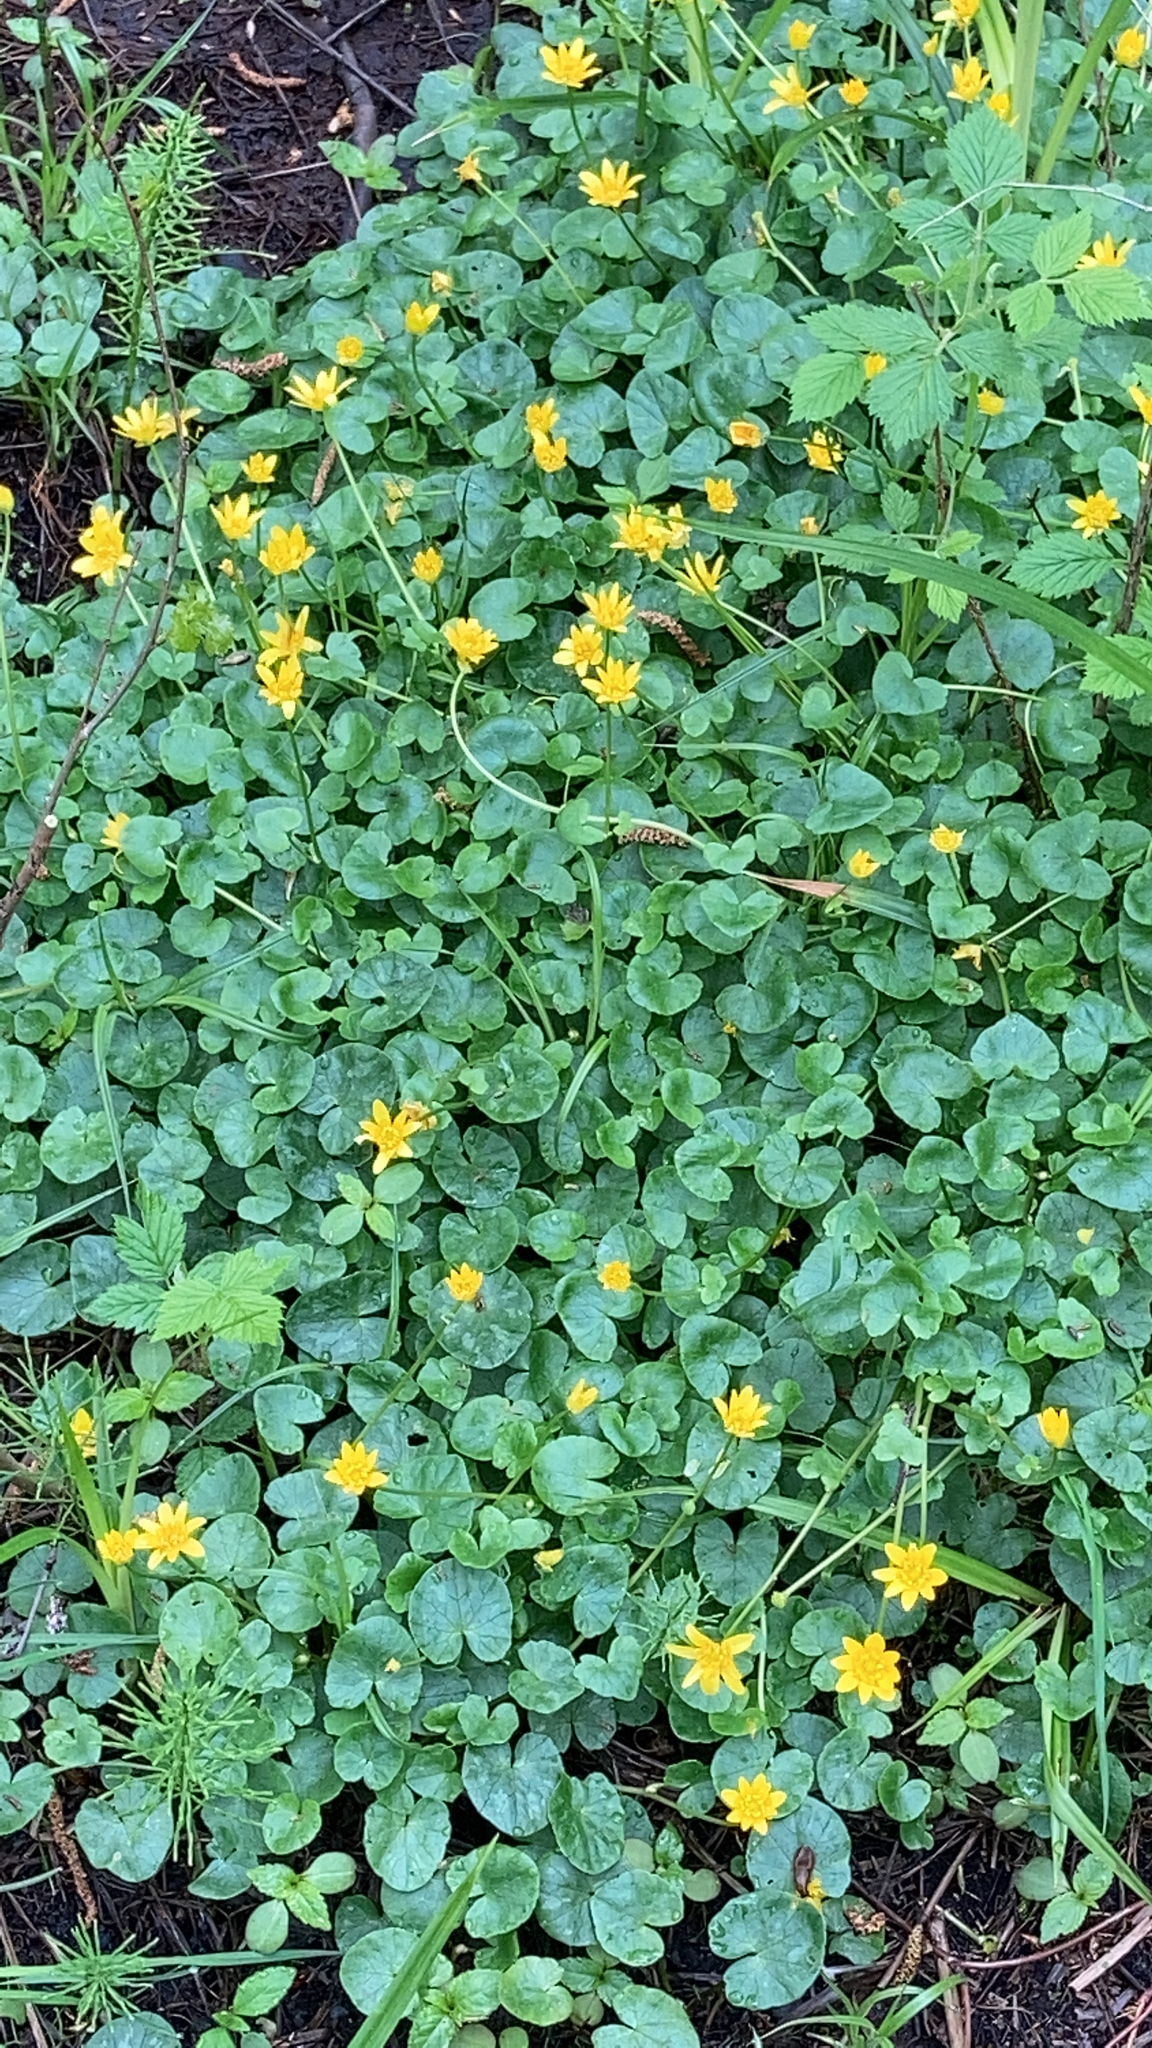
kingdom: Plantae
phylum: Tracheophyta
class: Magnoliopsida
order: Ranunculales
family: Ranunculaceae
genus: Ficaria
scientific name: Ficaria verna
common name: Lesser celandine
